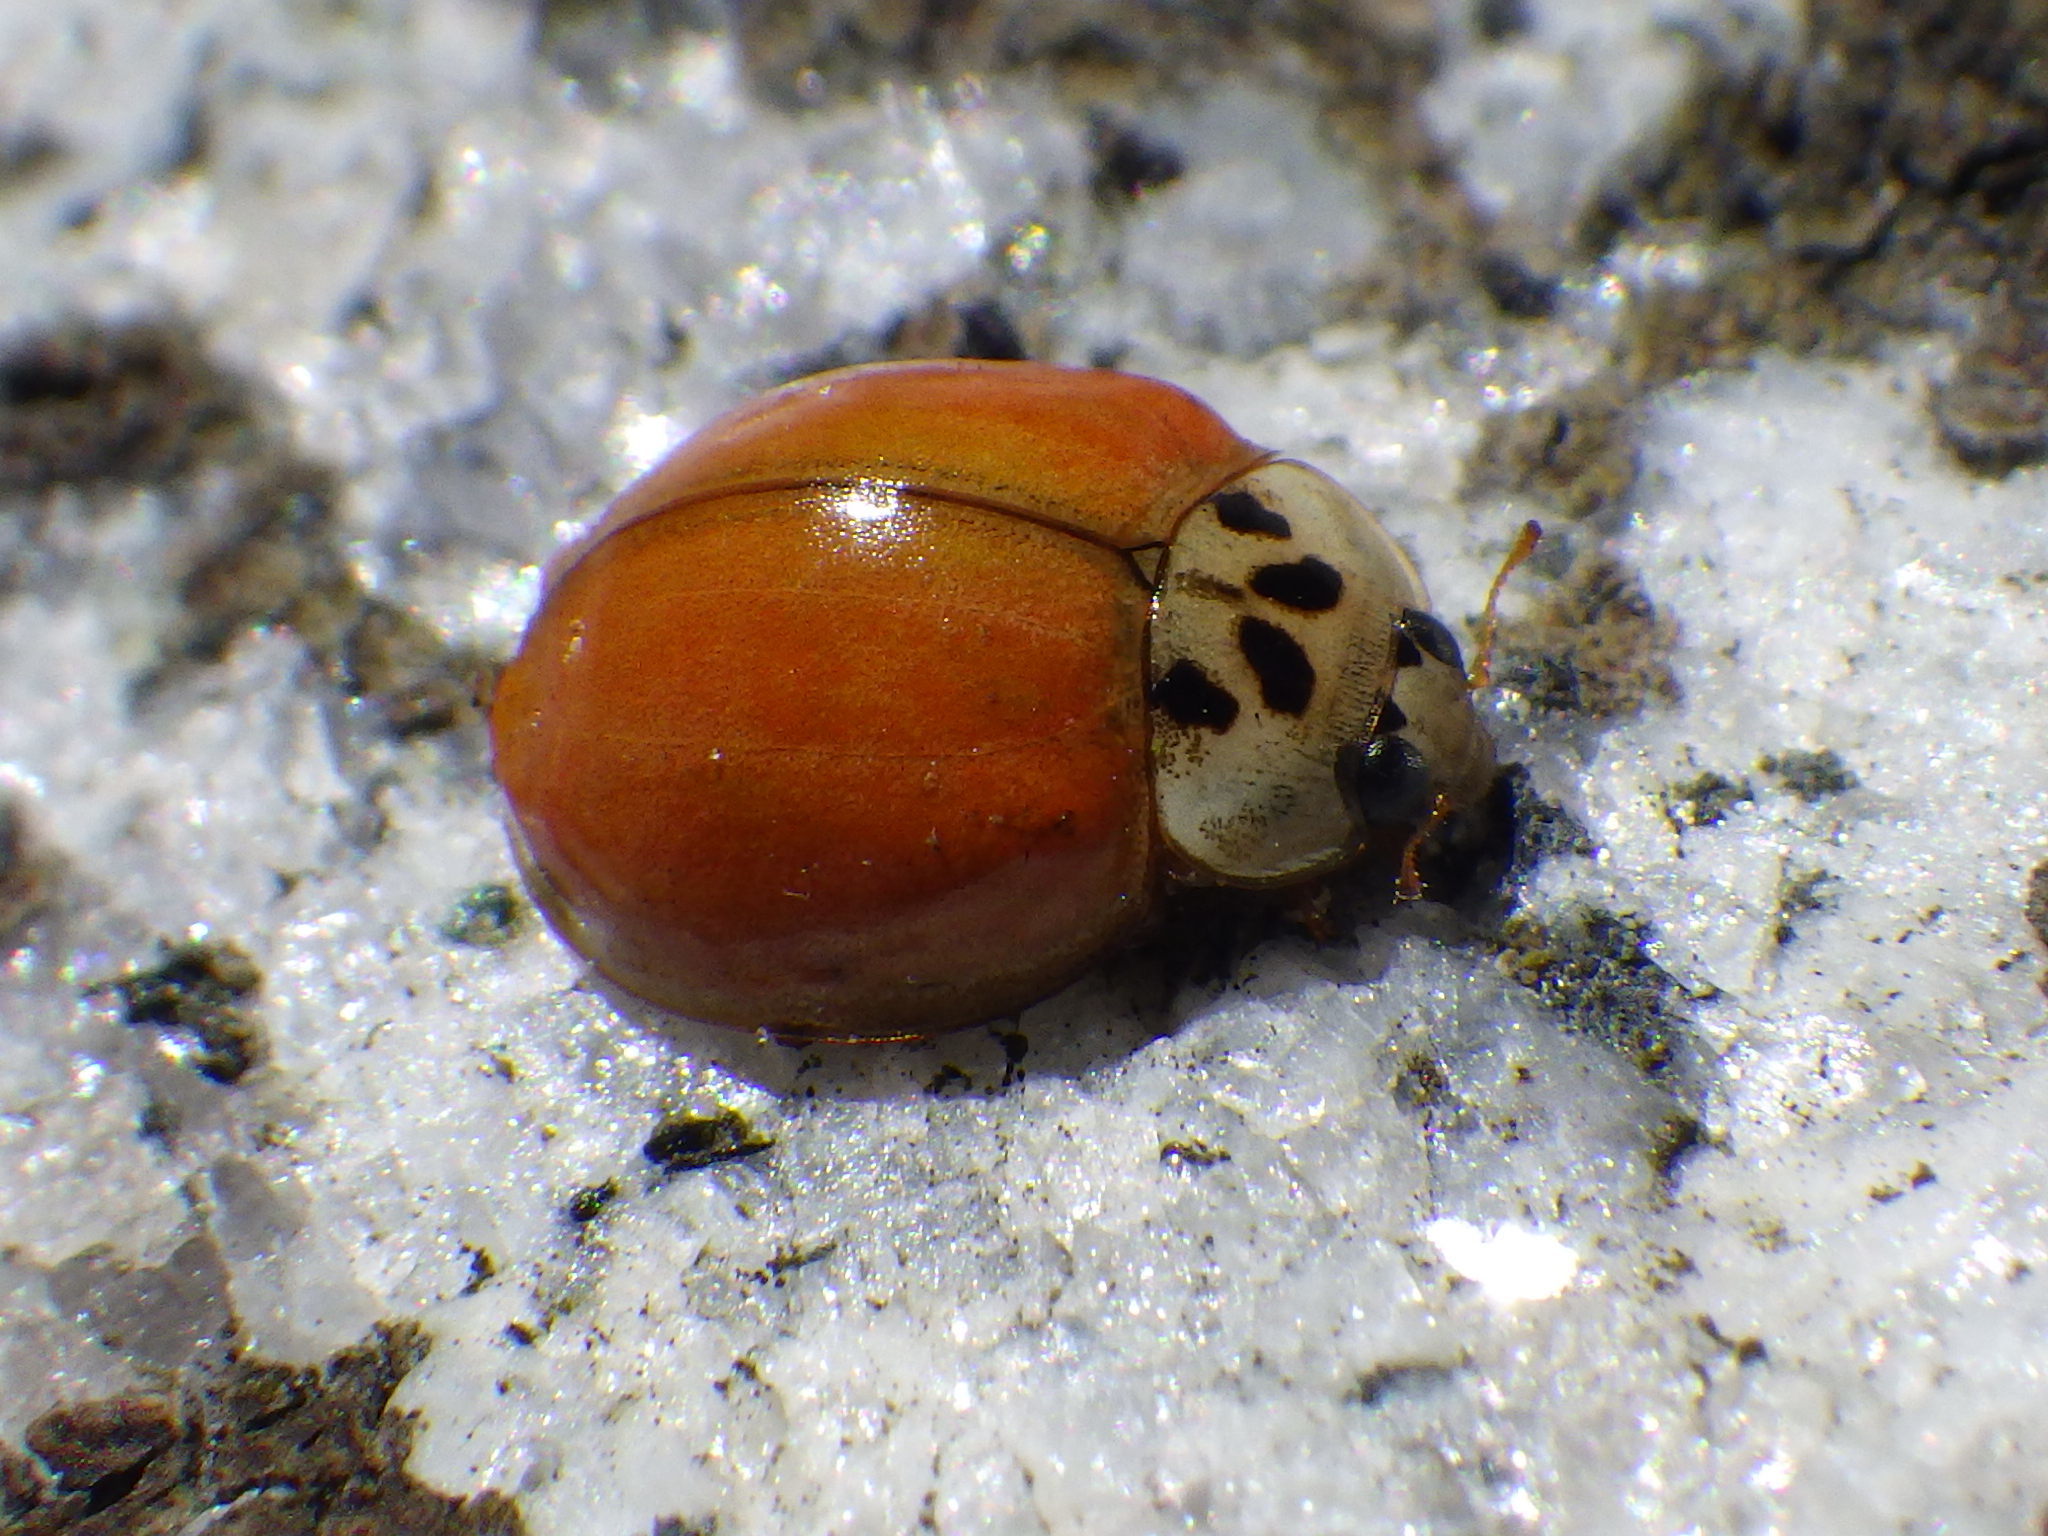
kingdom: Animalia
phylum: Arthropoda
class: Insecta
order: Coleoptera
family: Coccinellidae
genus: Harmonia
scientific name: Harmonia axyridis
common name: Harlequin ladybird
